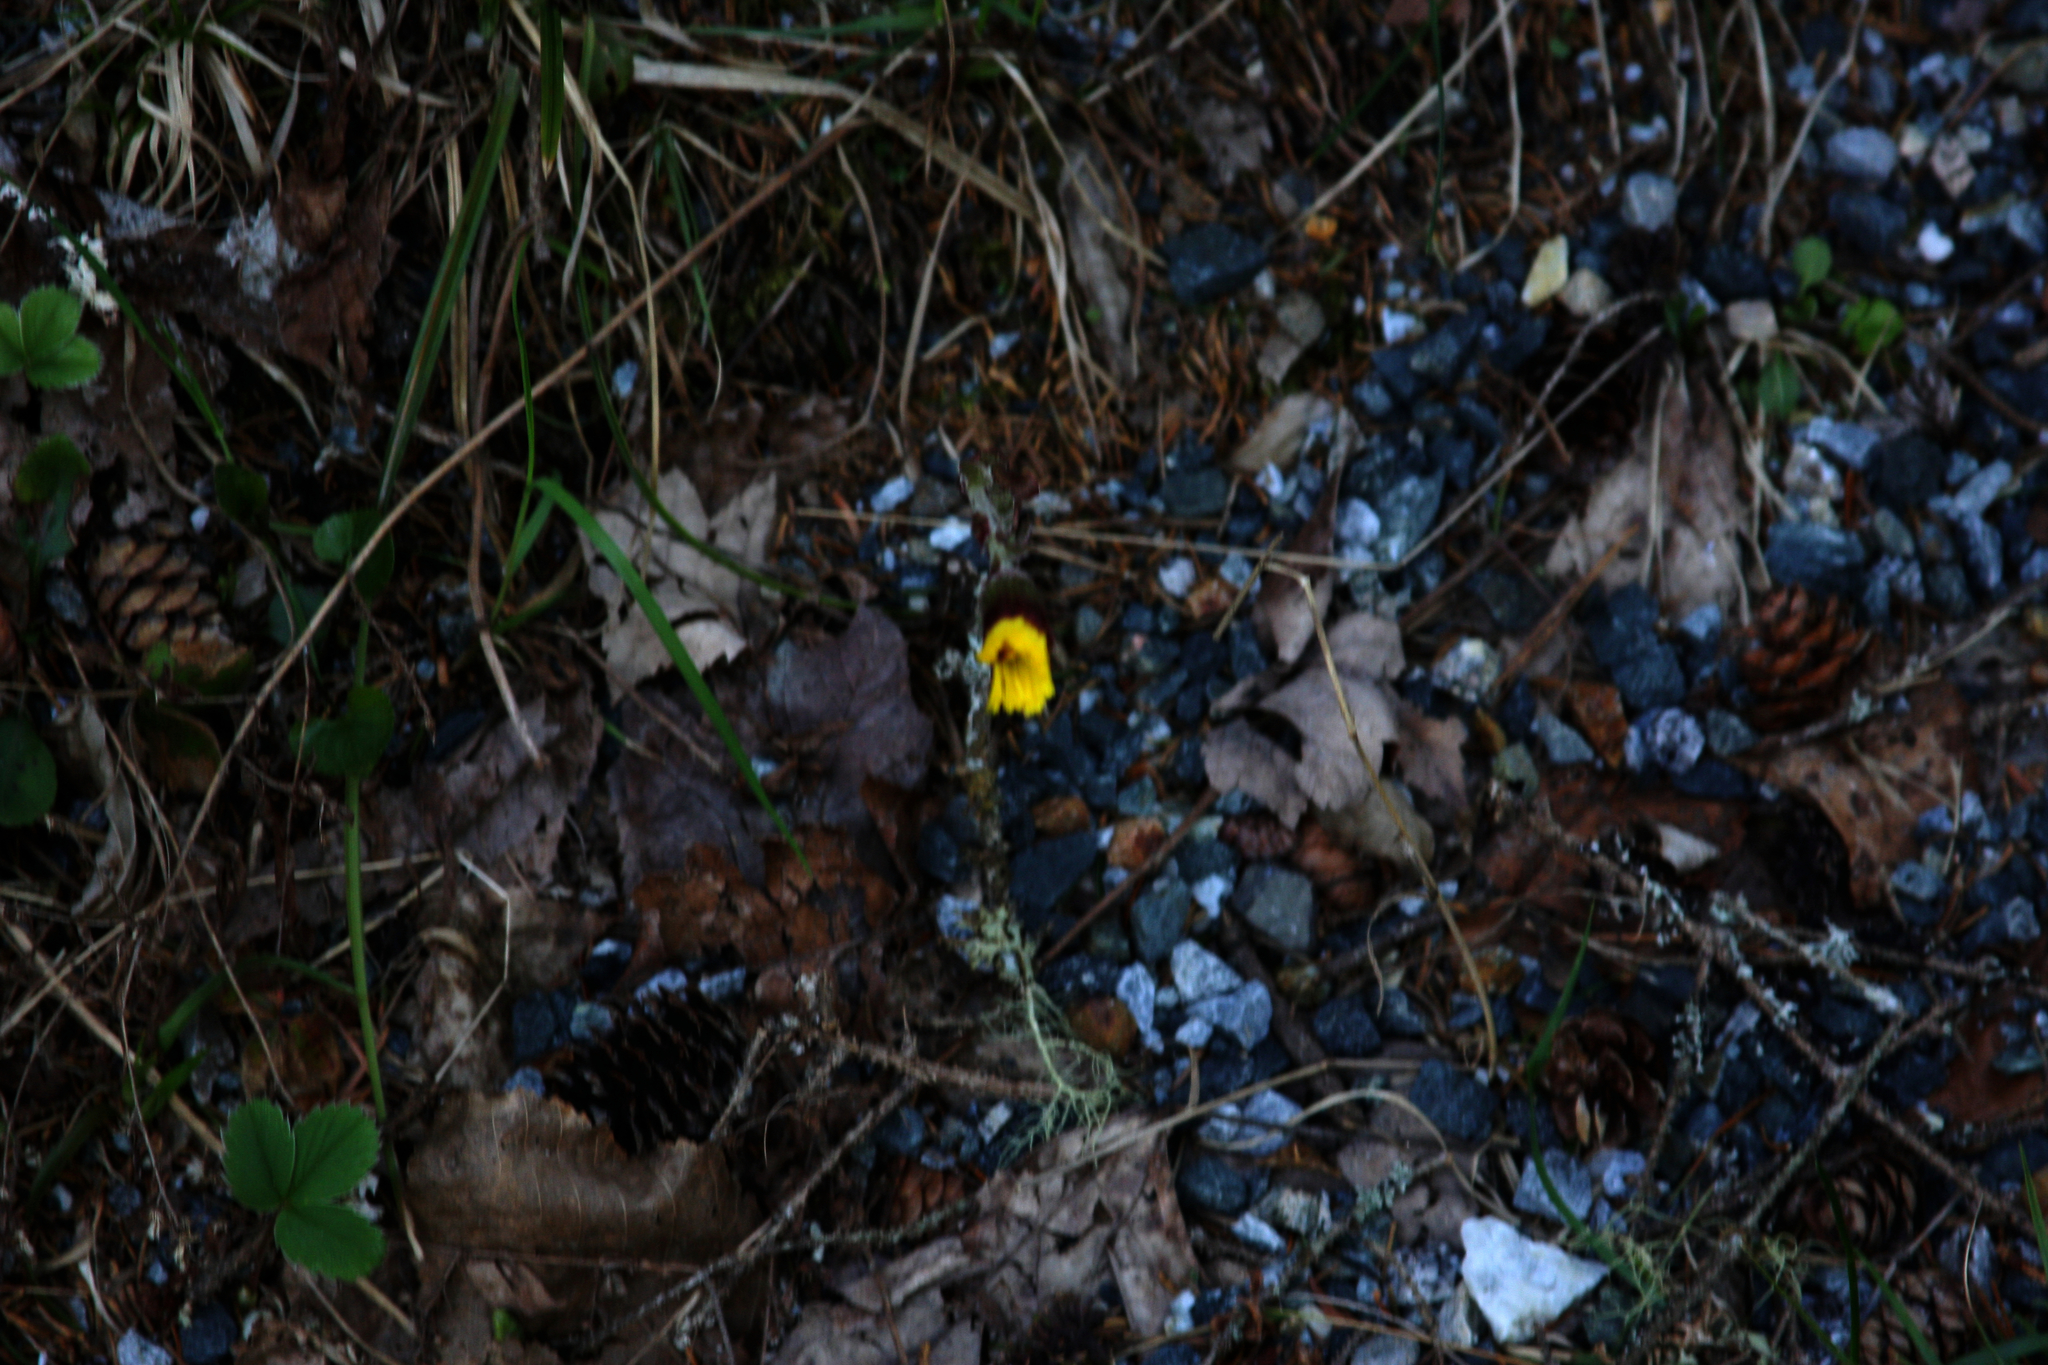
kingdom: Plantae
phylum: Tracheophyta
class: Magnoliopsida
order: Asterales
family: Asteraceae
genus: Tussilago
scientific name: Tussilago farfara
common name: Coltsfoot
